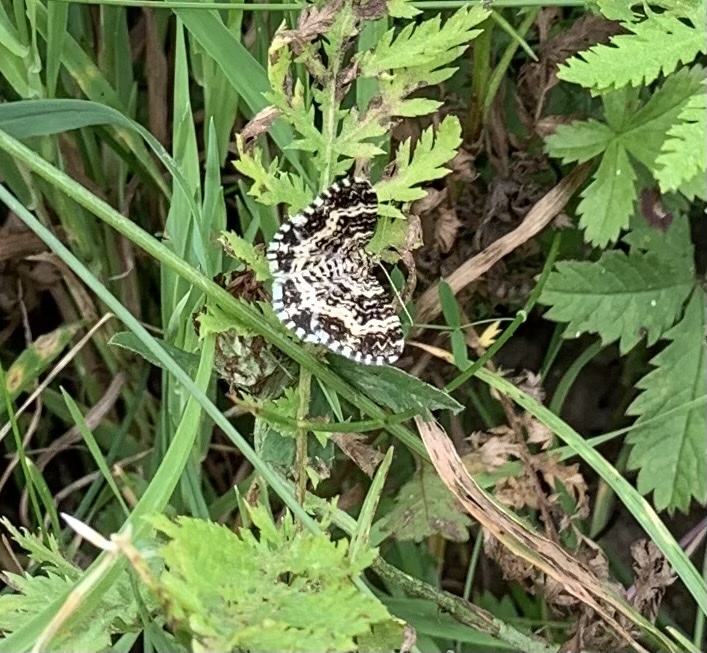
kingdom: Animalia
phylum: Arthropoda
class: Insecta
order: Lepidoptera
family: Geometridae
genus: Epirrhoe
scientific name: Epirrhoe tristata
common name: Small argent & sable
